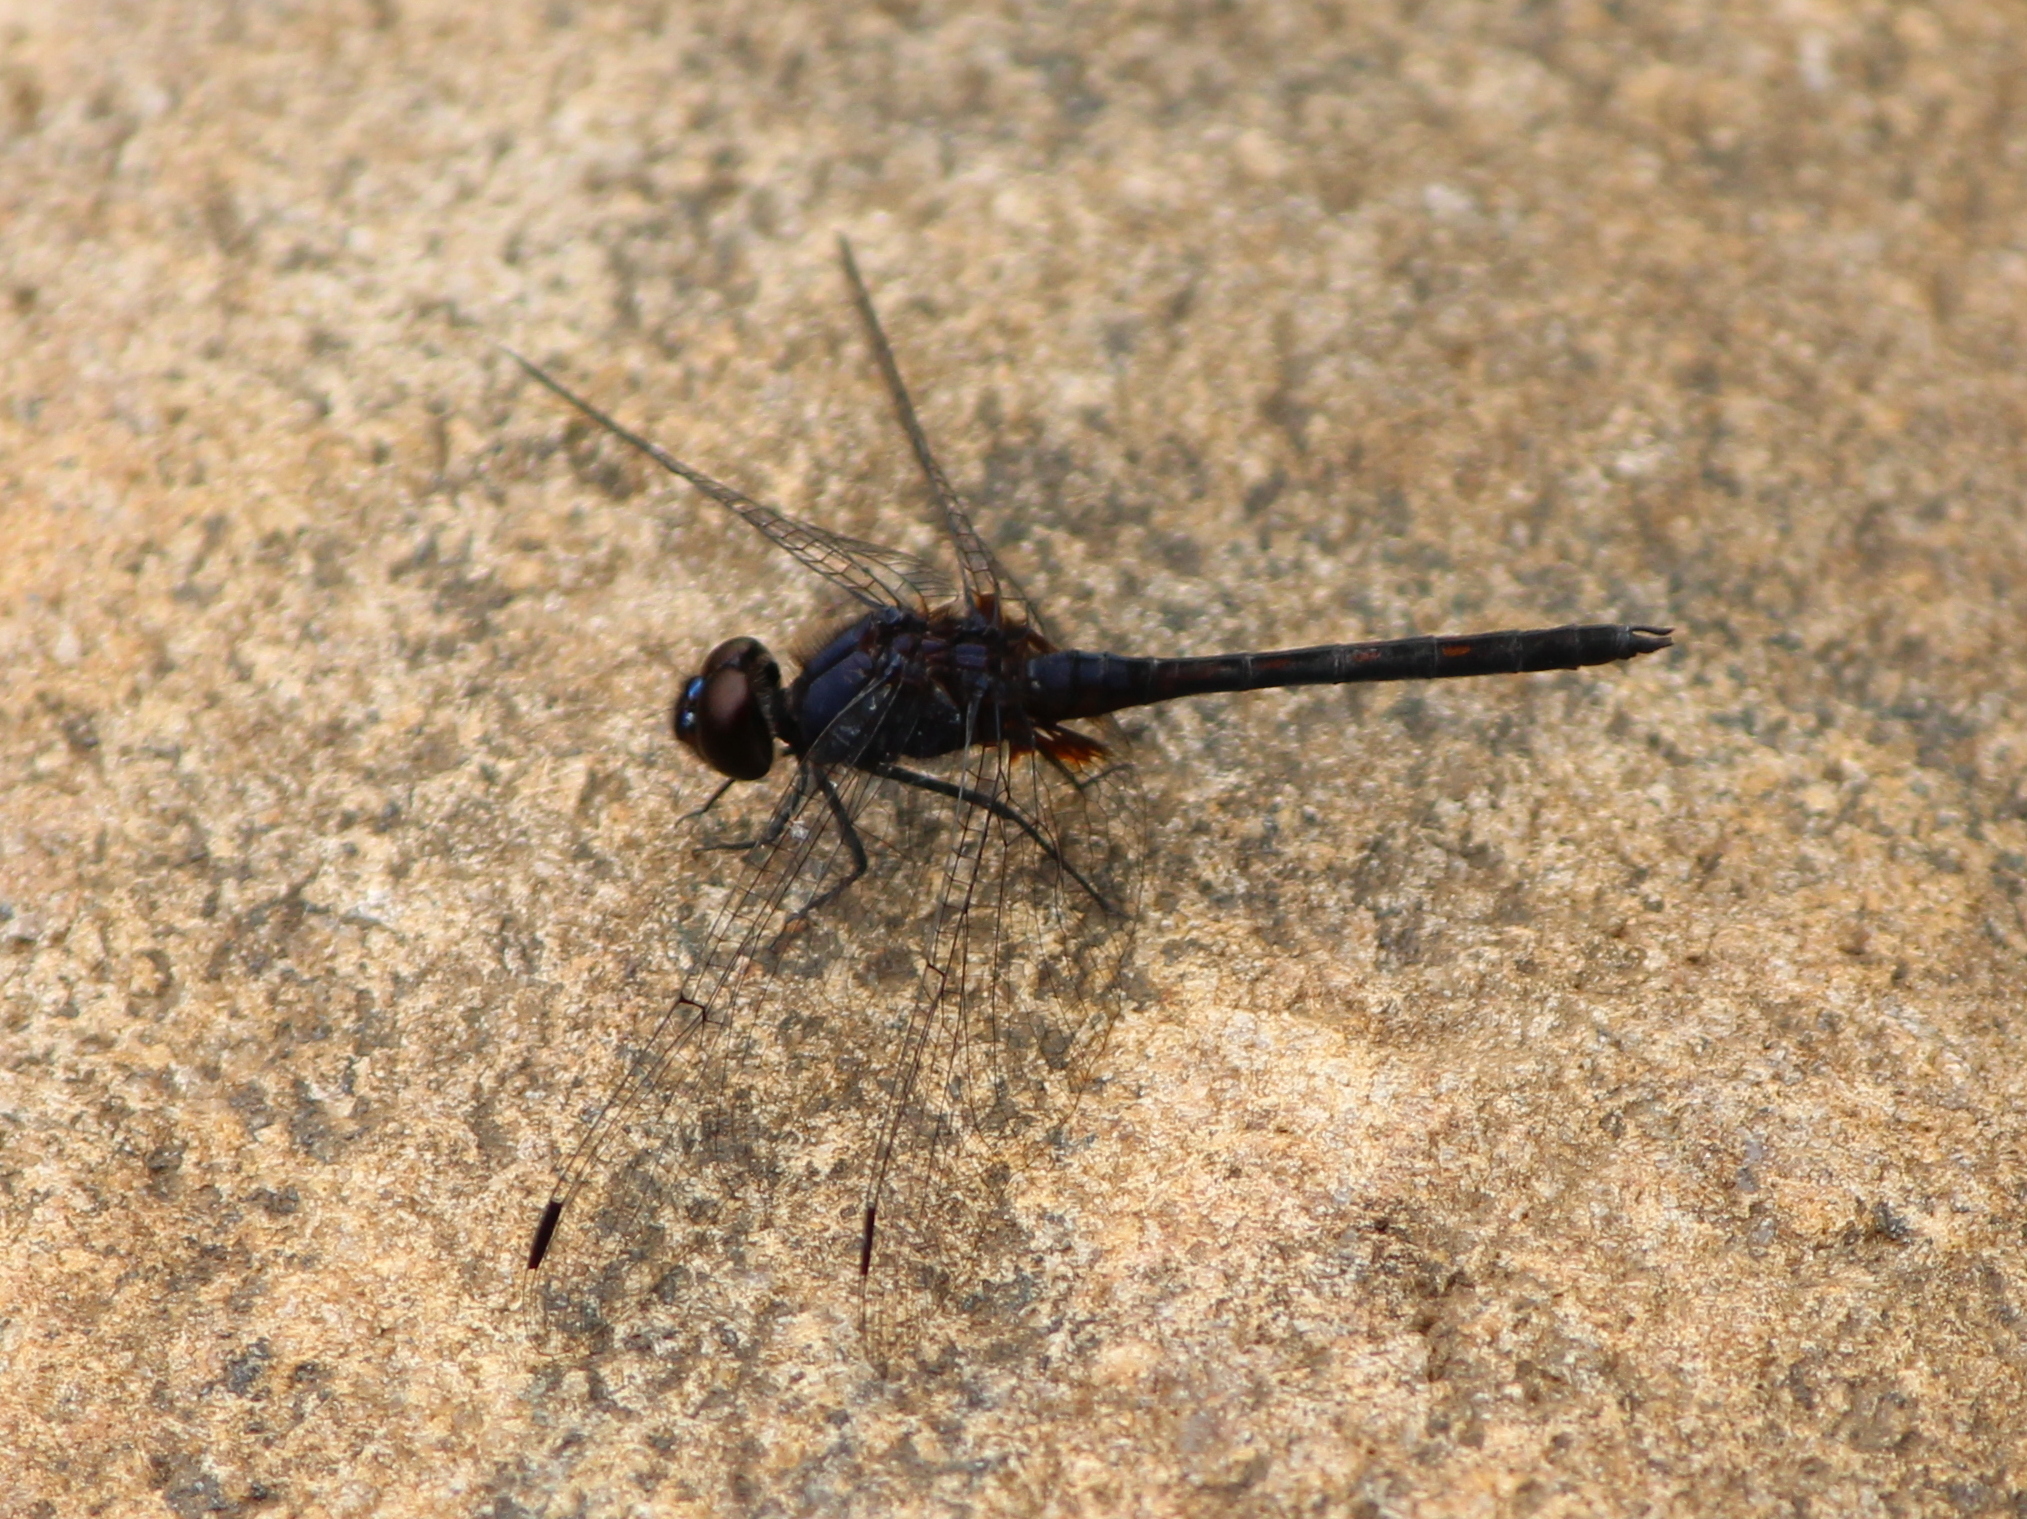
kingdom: Animalia
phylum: Arthropoda
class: Insecta
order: Odonata
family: Libellulidae
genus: Trithemis
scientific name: Trithemis festiva
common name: Indigo dropwing
